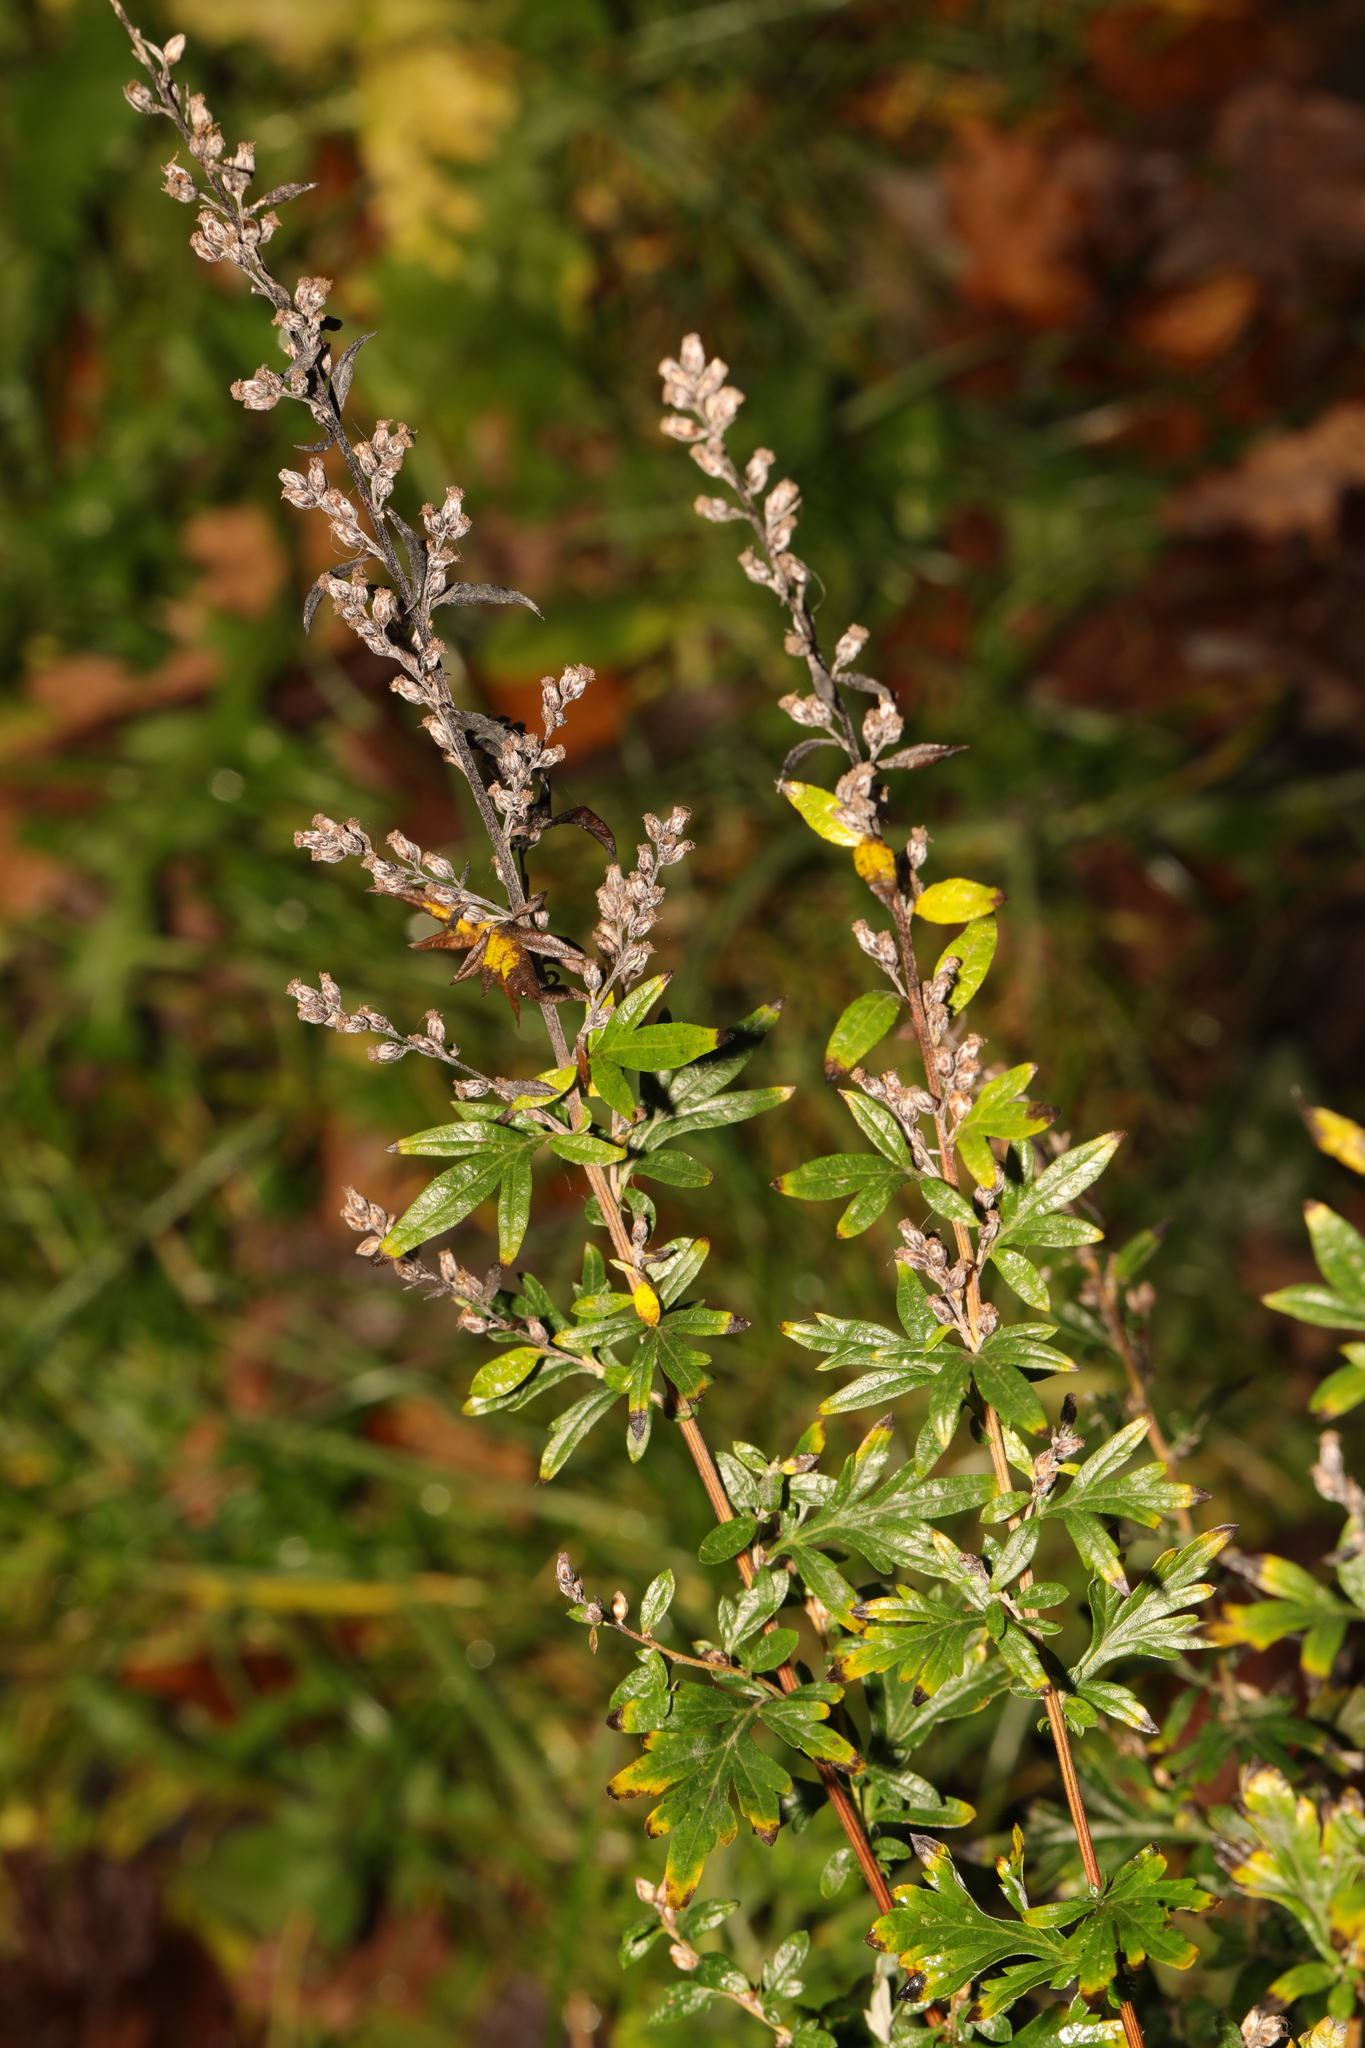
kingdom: Plantae
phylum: Tracheophyta
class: Magnoliopsida
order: Asterales
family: Asteraceae
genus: Artemisia
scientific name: Artemisia vulgaris
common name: Mugwort
